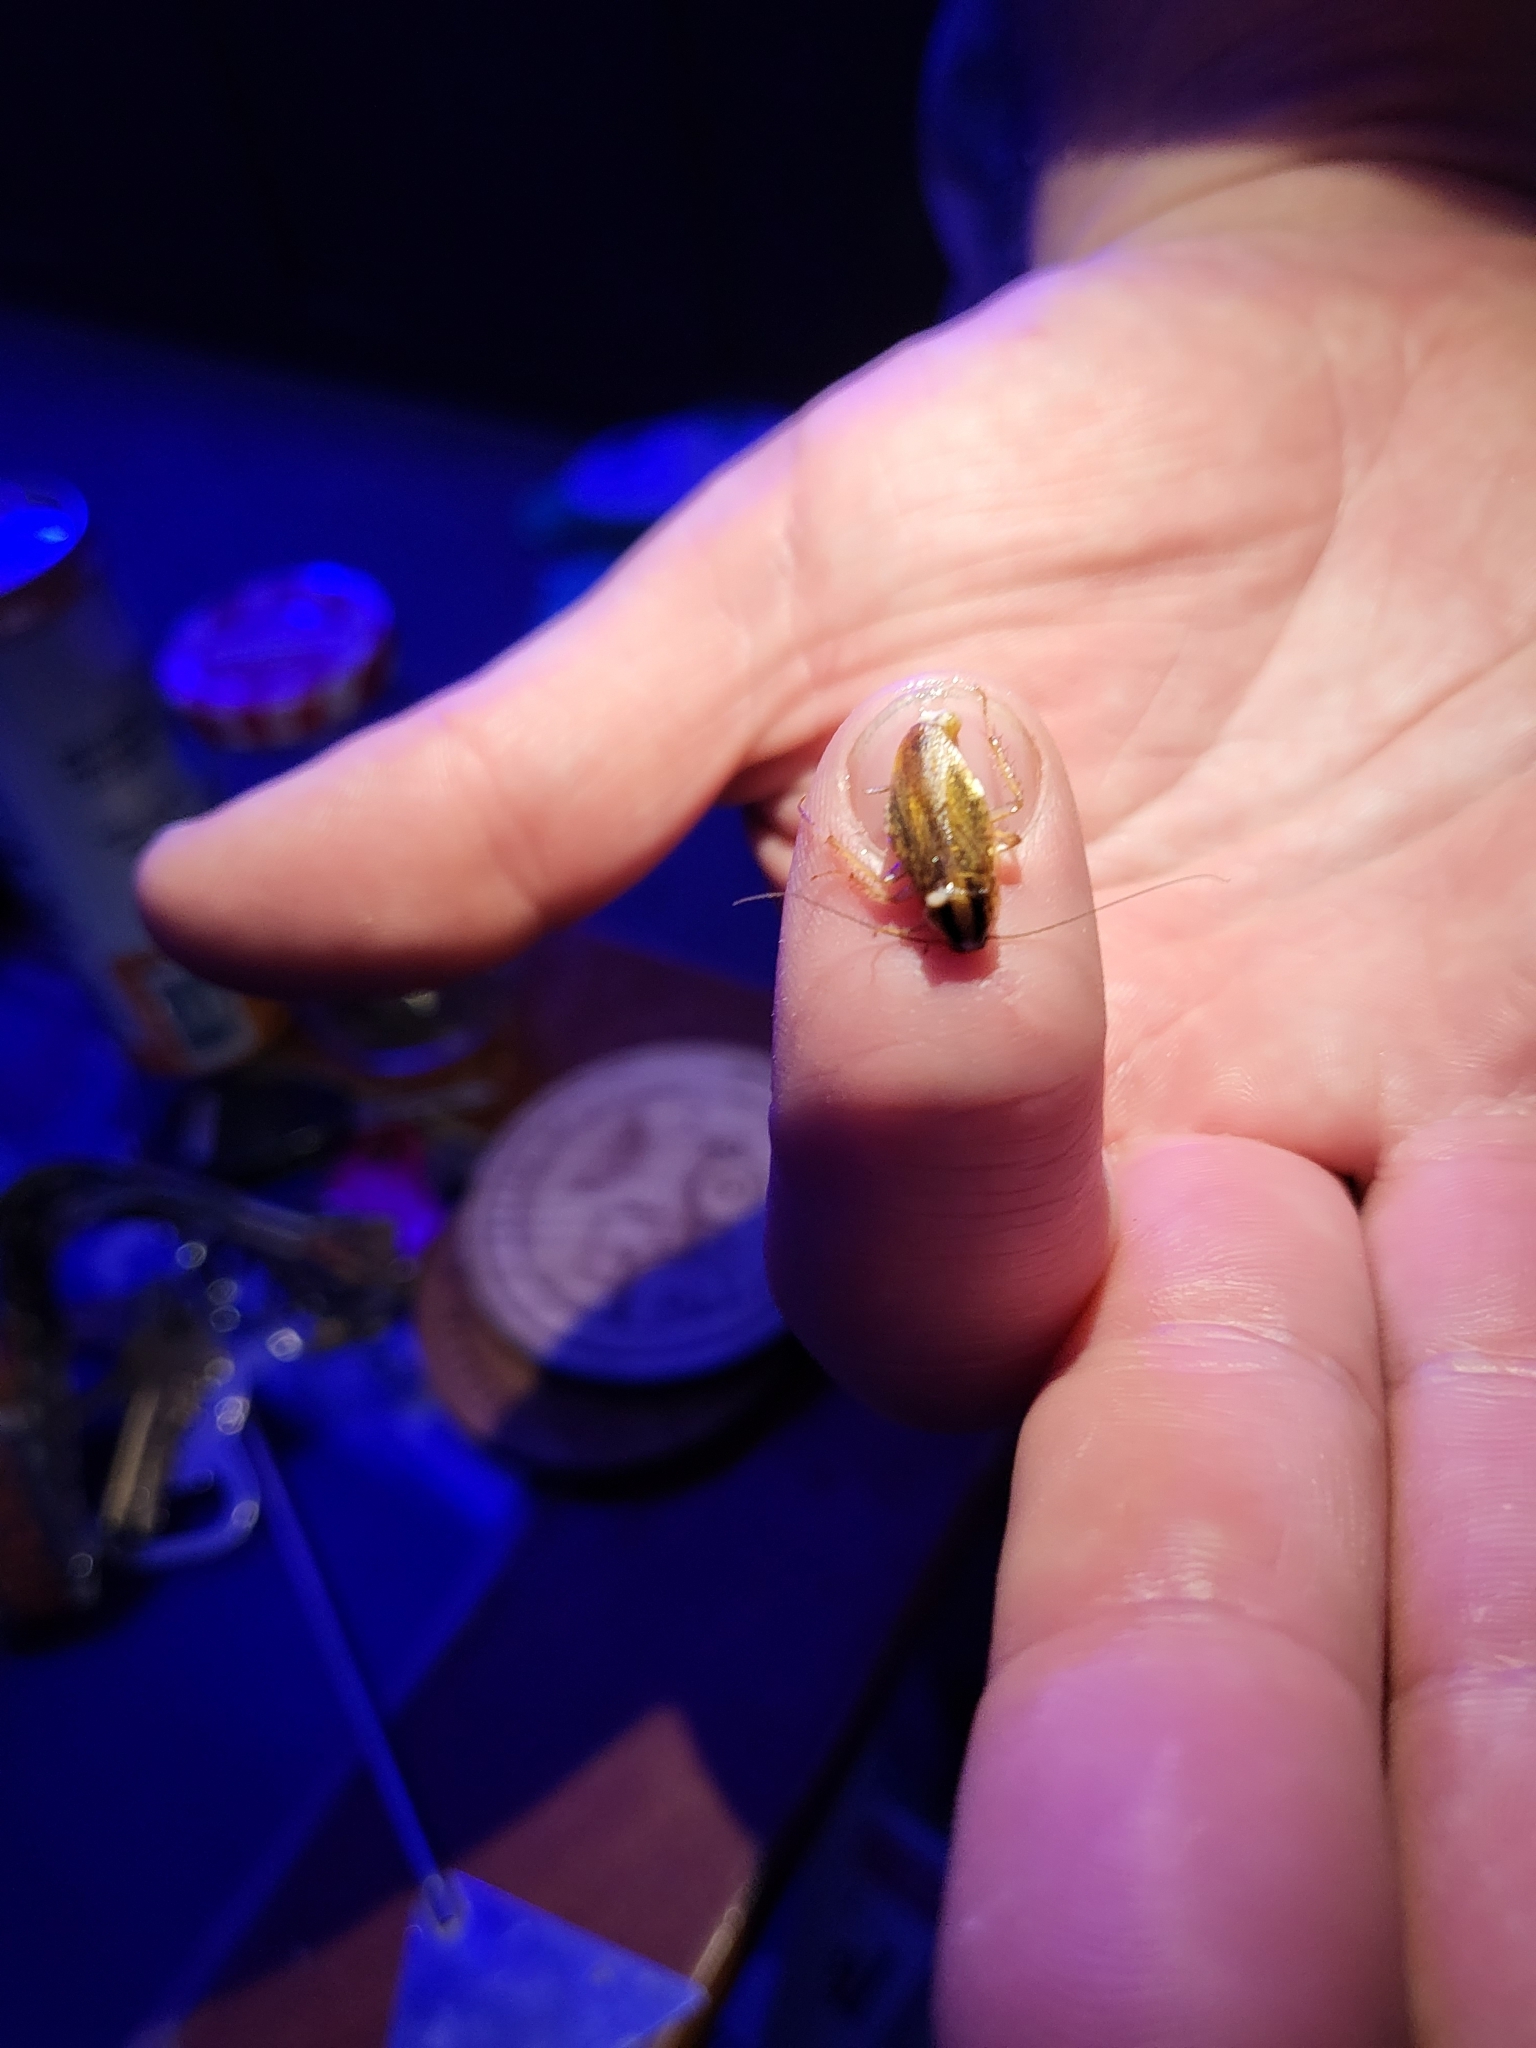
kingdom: Animalia
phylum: Arthropoda
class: Insecta
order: Blattodea
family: Ectobiidae
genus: Blattella
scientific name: Blattella germanica
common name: German cockroach
